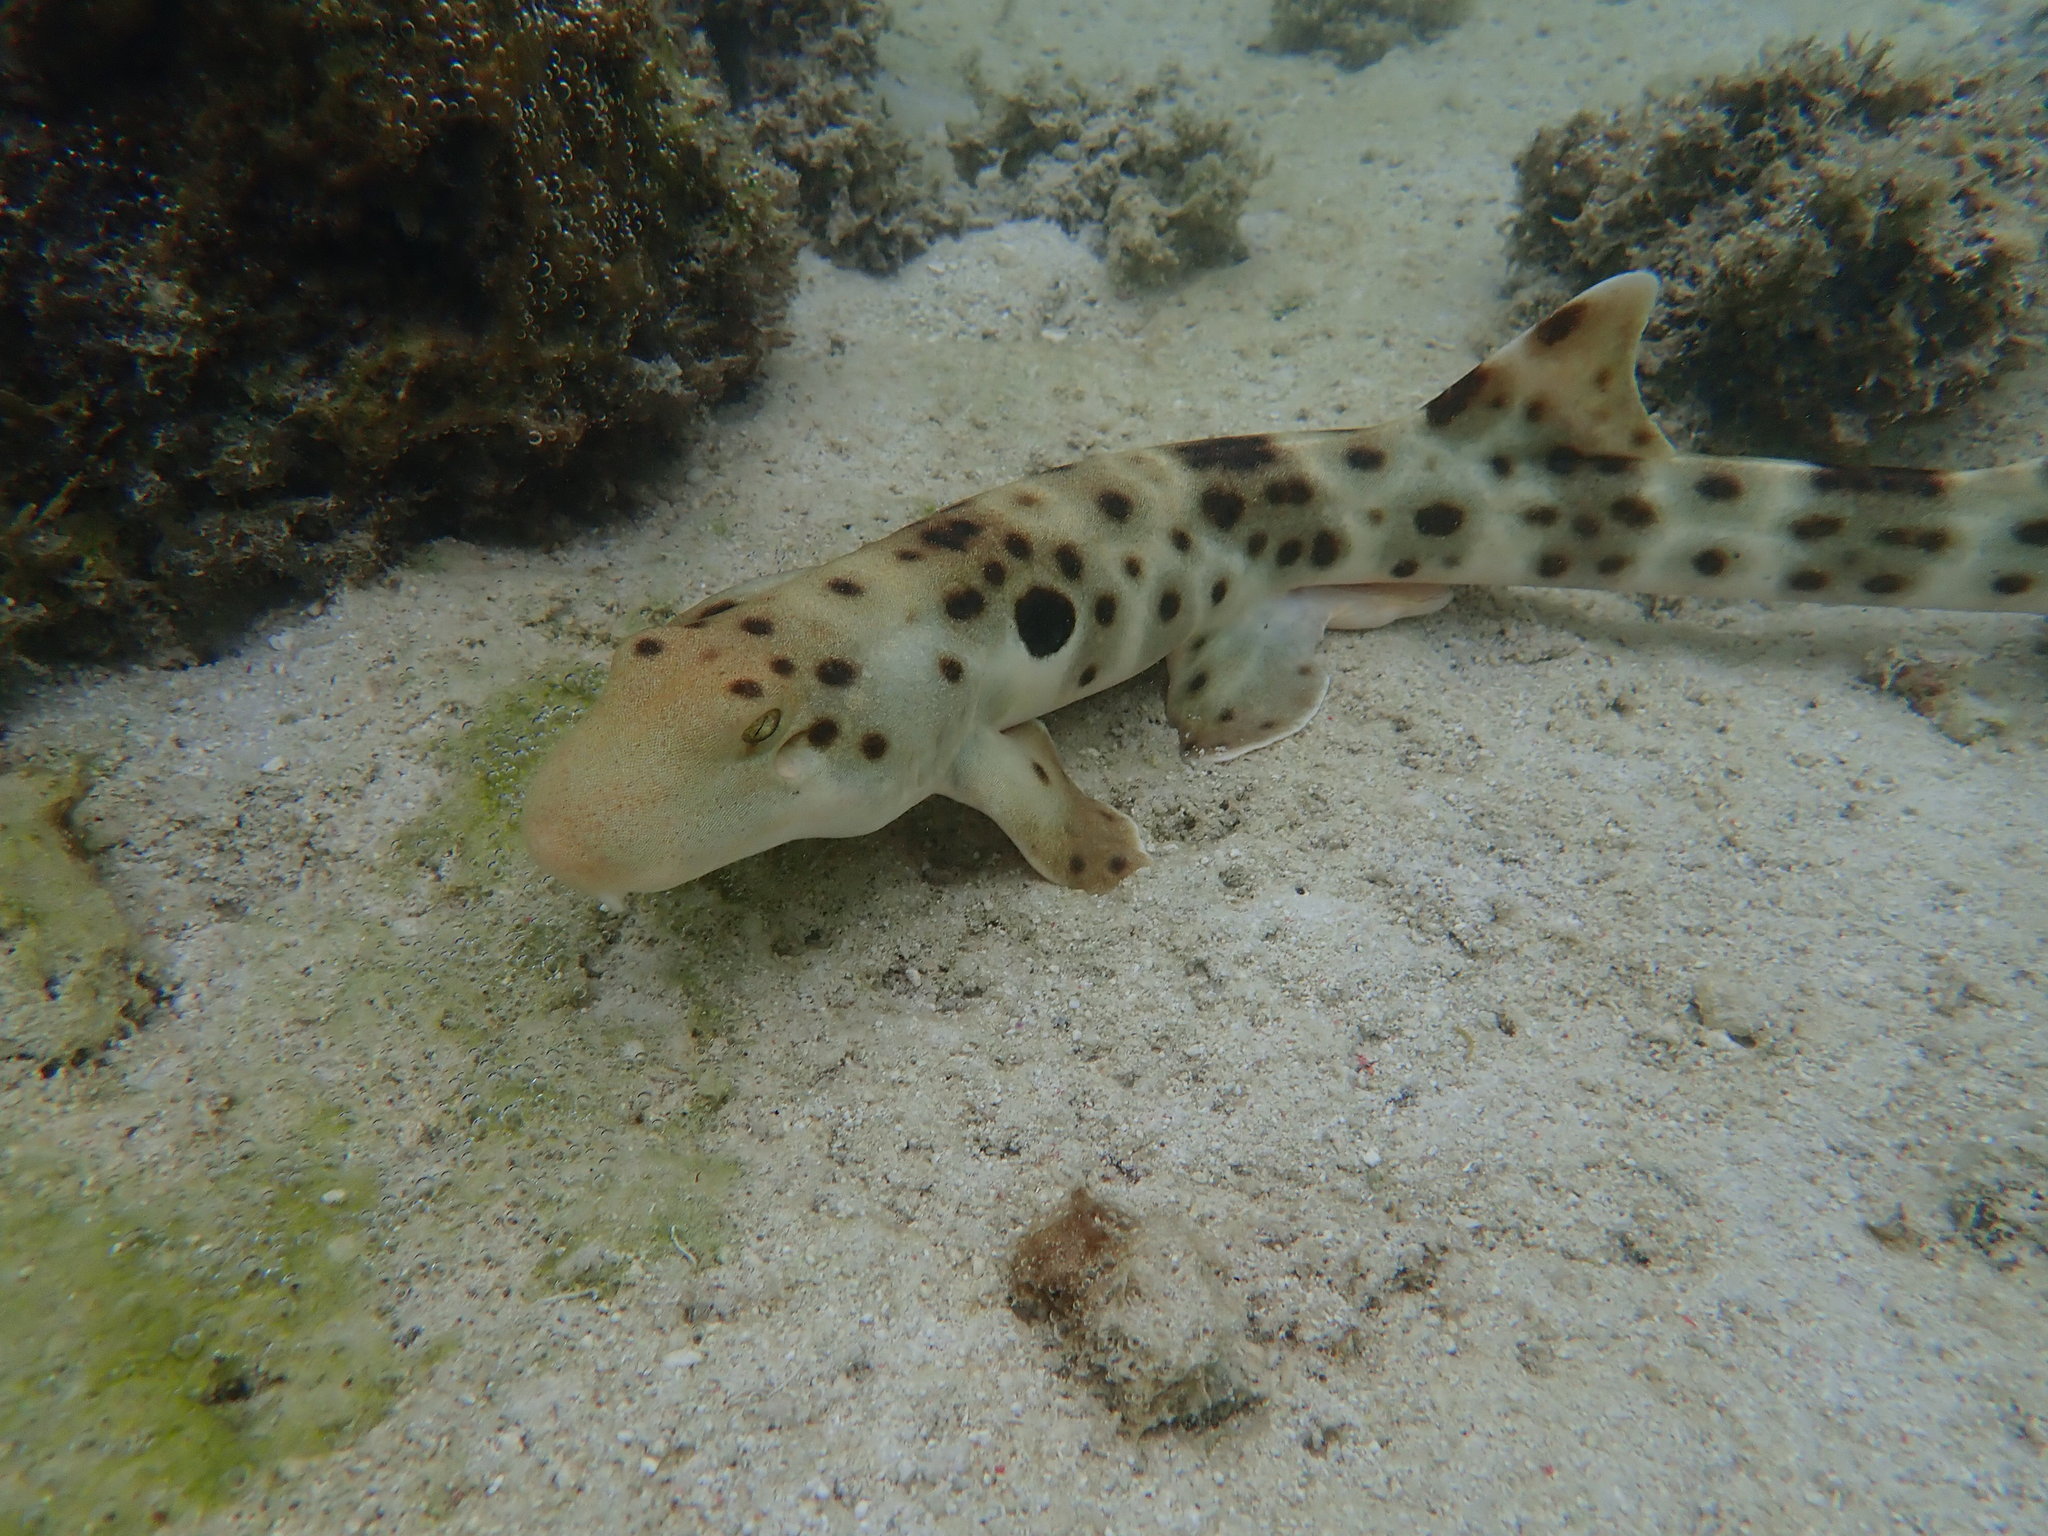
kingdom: Animalia
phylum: Chordata
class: Elasmobranchii
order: Orectolobiformes
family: Hemiscylliidae
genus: Hemiscyllium
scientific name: Hemiscyllium ocellatum
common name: Epaulette shark
